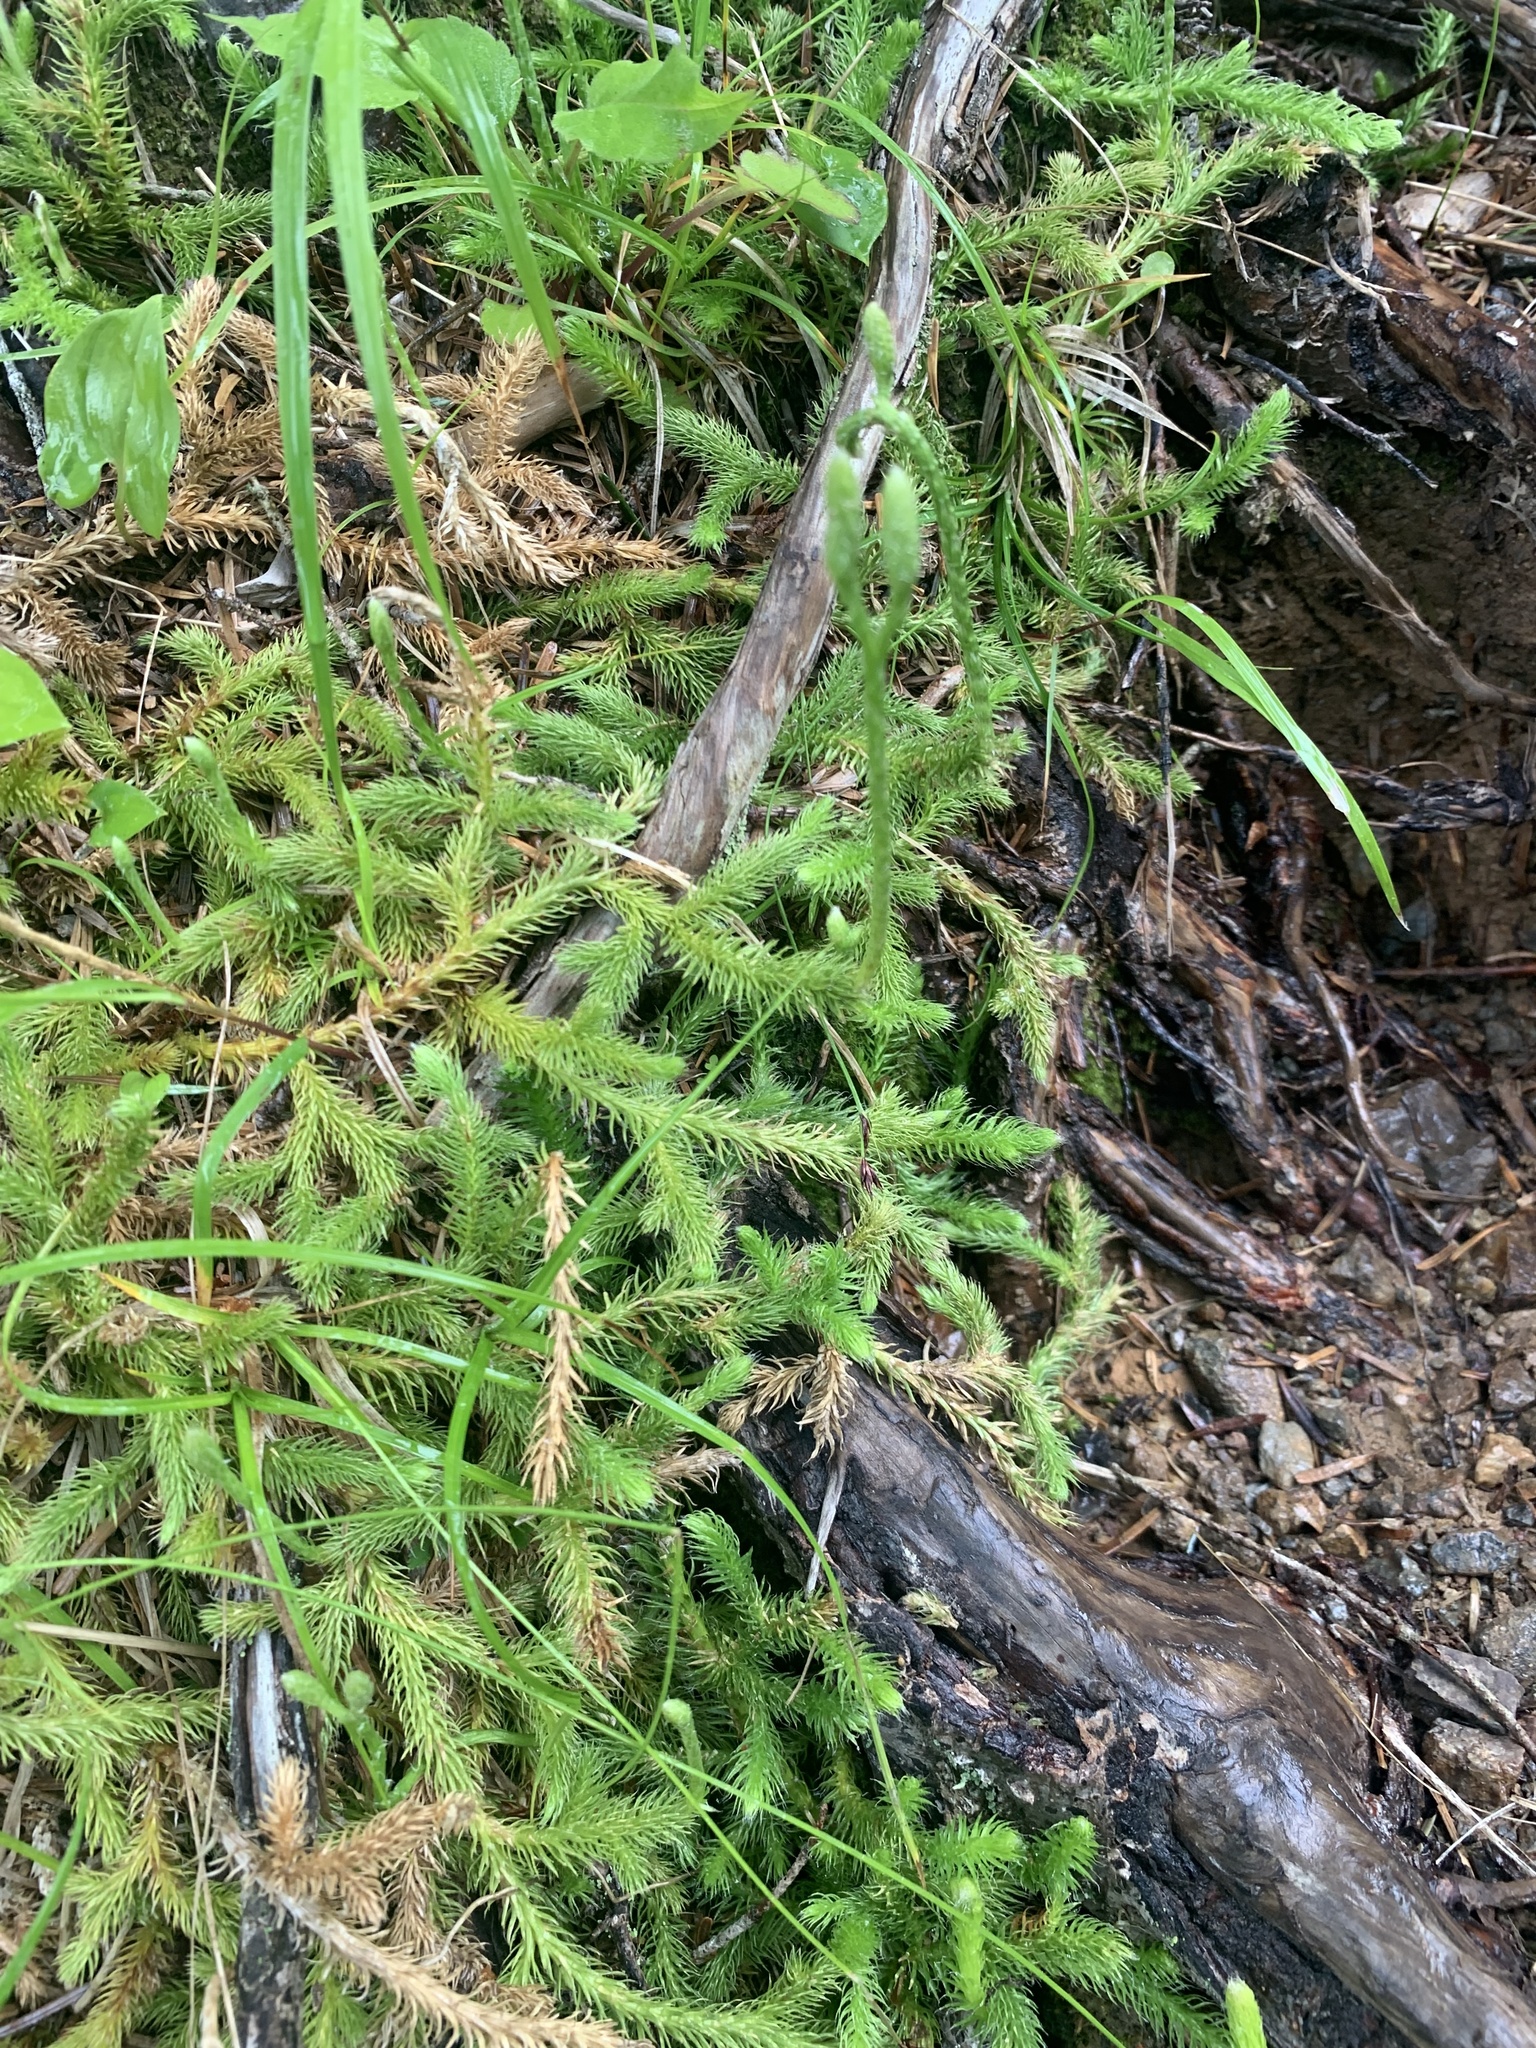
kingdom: Plantae
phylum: Tracheophyta
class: Lycopodiopsida
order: Lycopodiales
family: Lycopodiaceae
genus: Lycopodium
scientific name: Lycopodium clavatum
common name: Stag's-horn clubmoss
